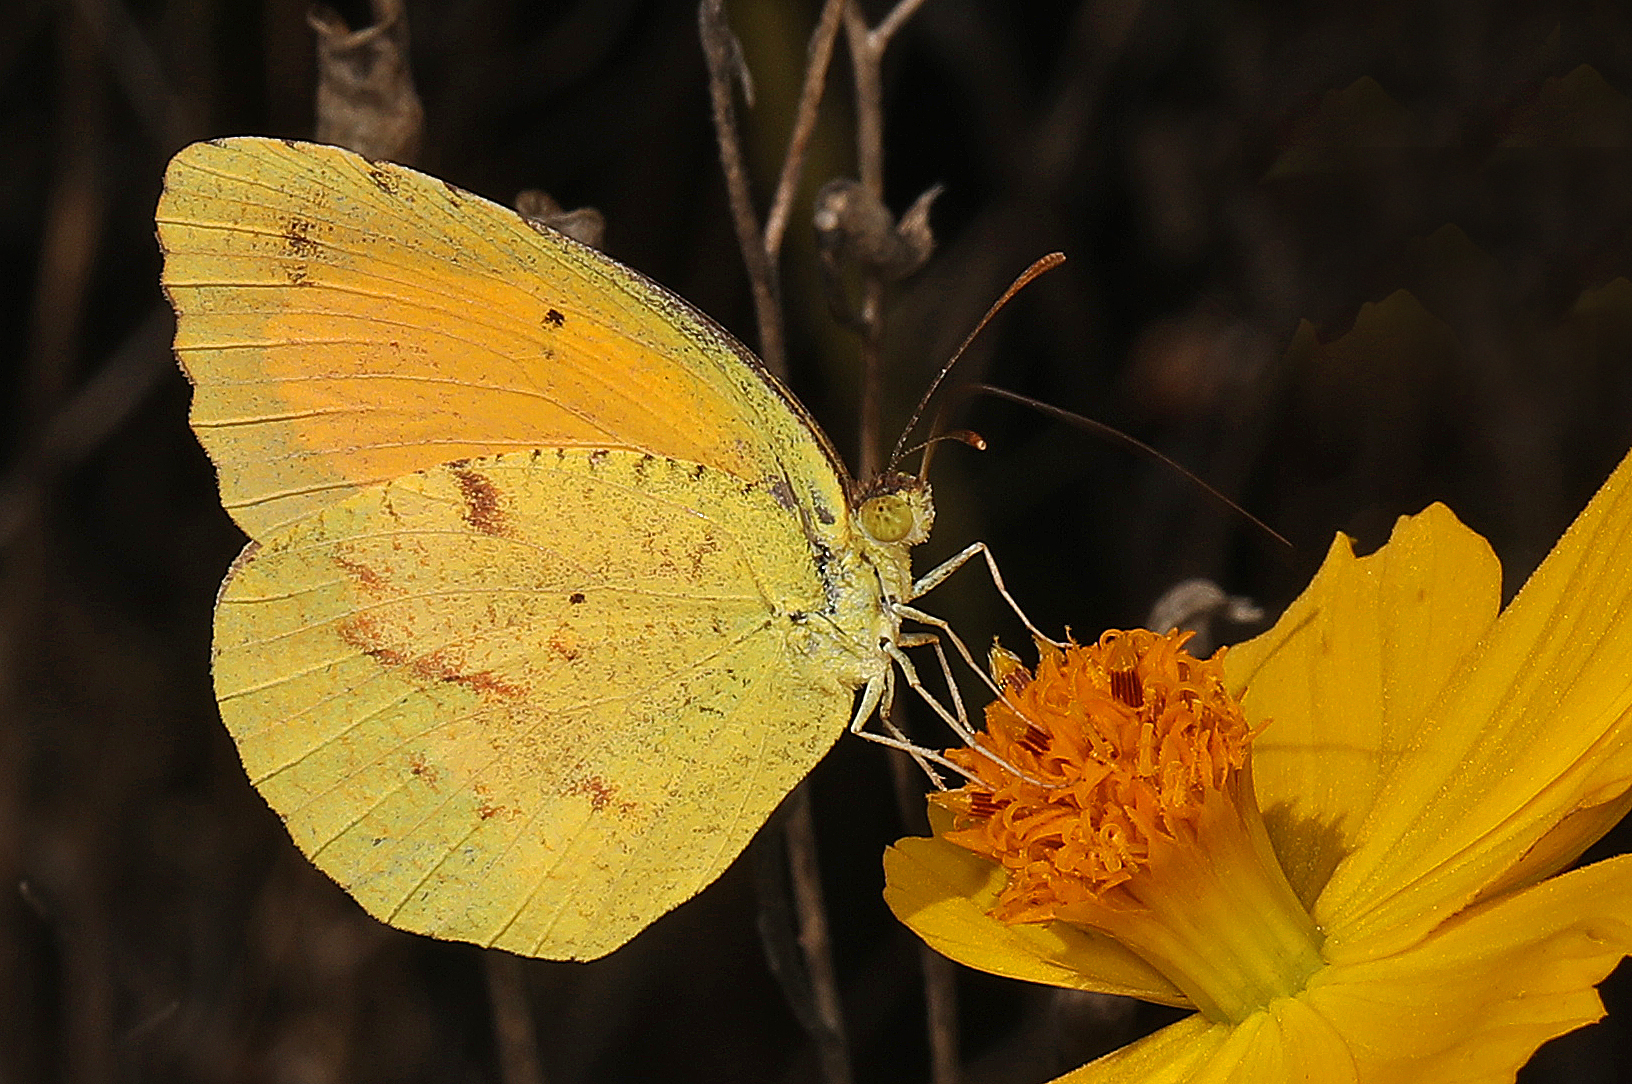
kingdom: Animalia
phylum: Arthropoda
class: Insecta
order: Lepidoptera
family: Pieridae
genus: Abaeis
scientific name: Abaeis nicippe
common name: Sleepy orange
